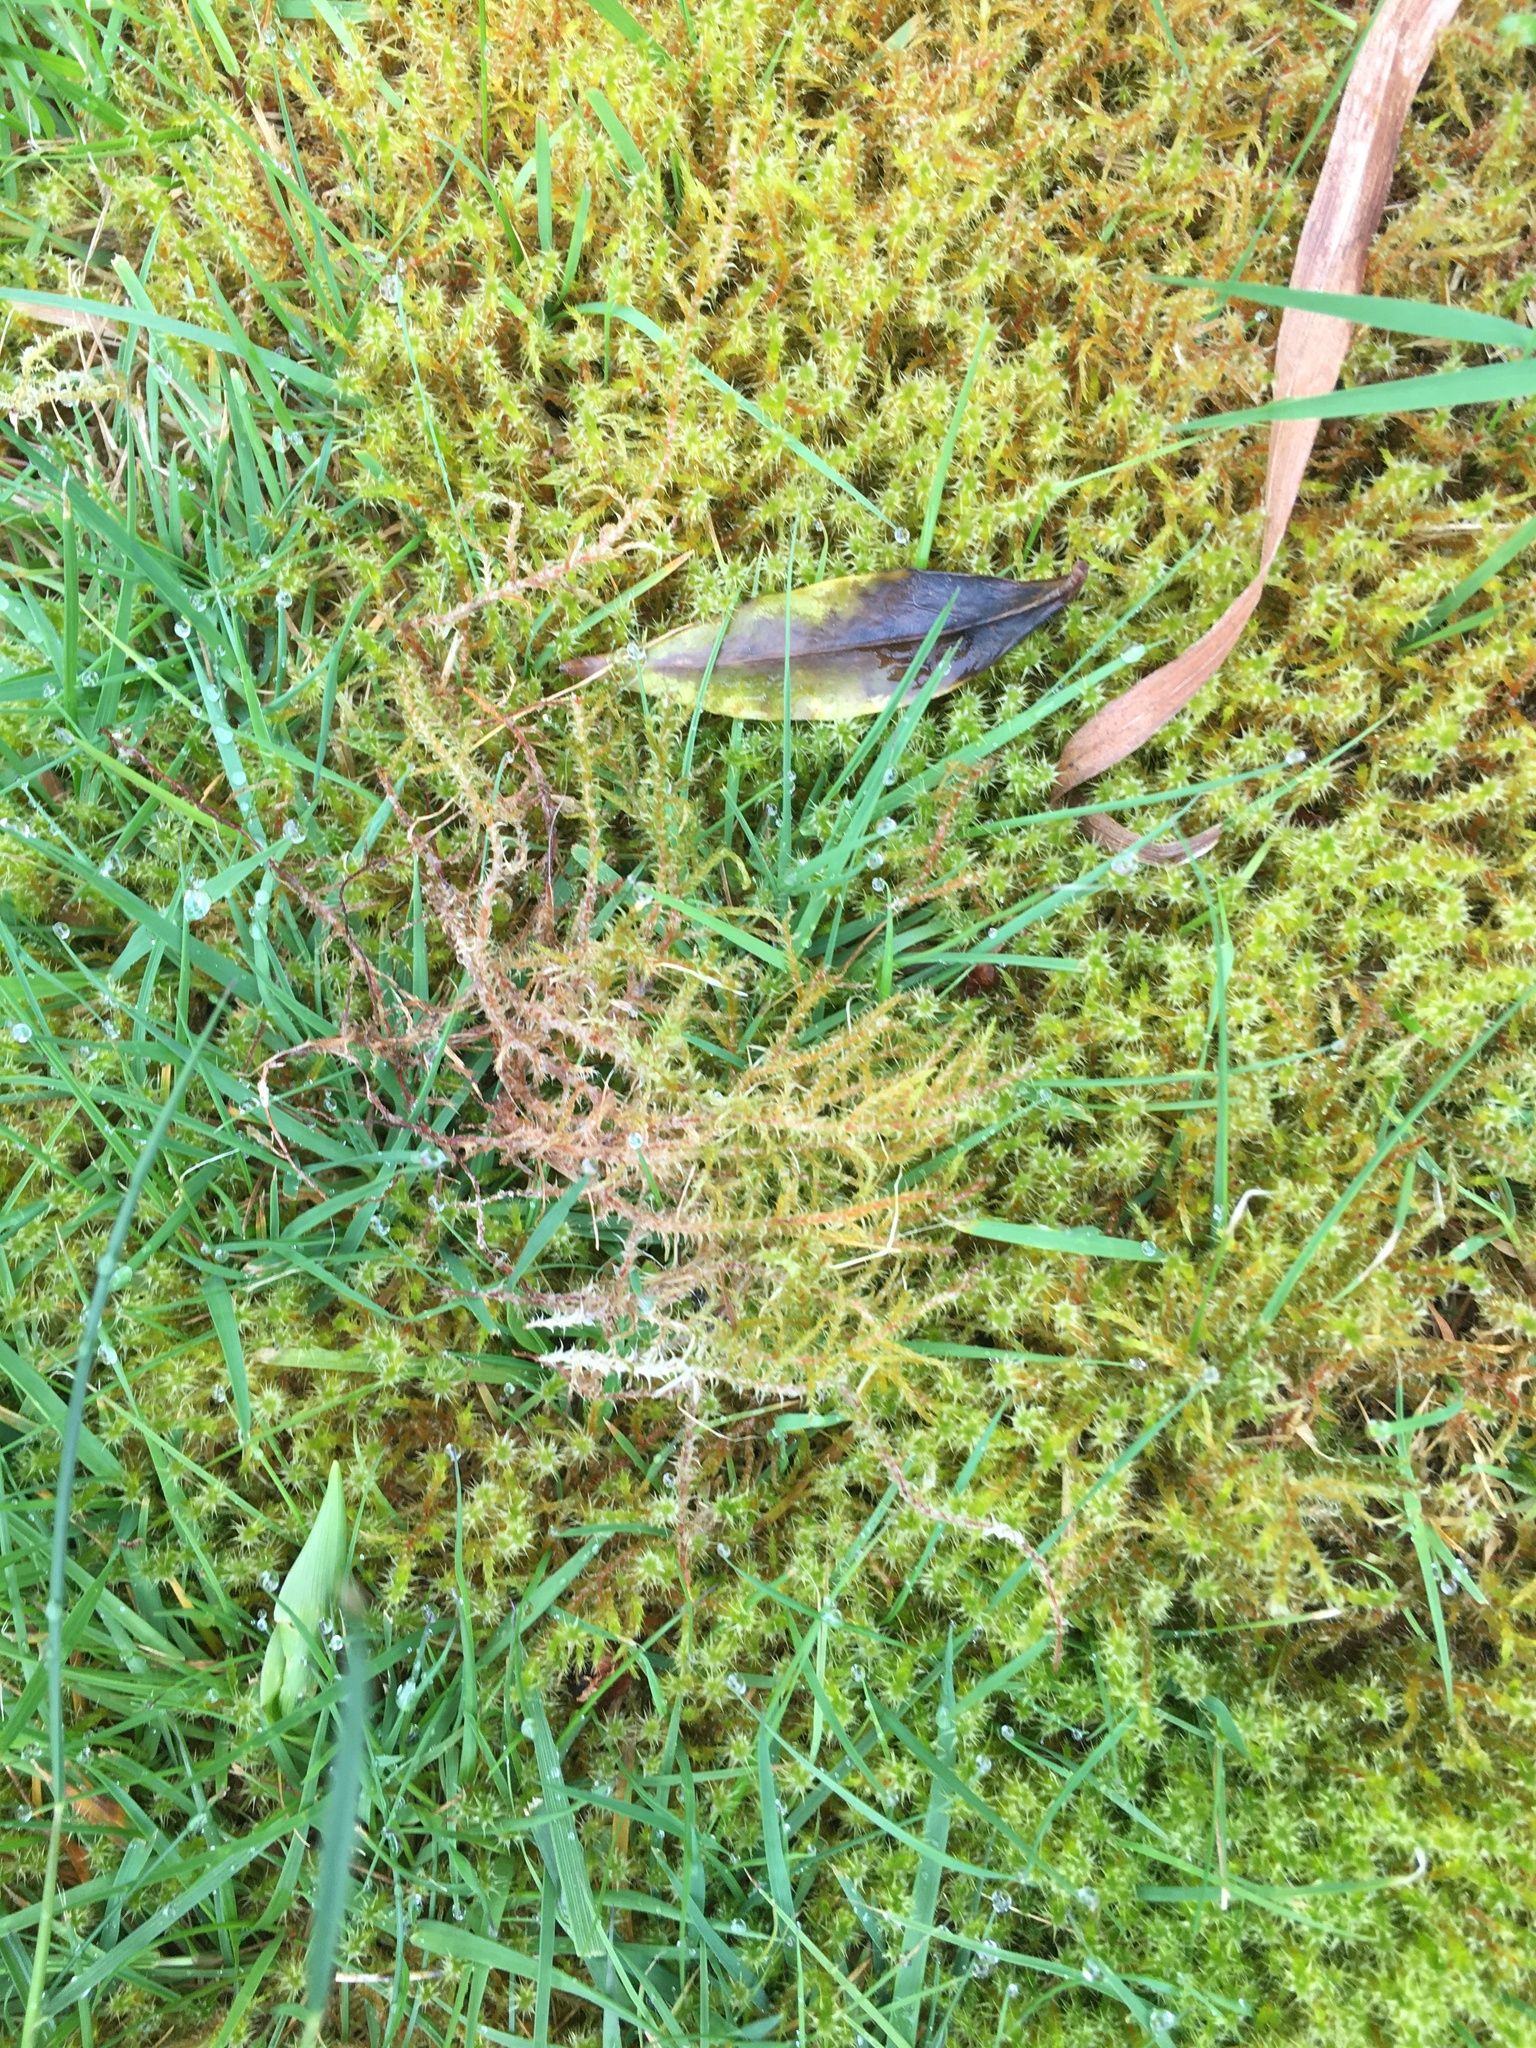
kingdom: Plantae
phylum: Bryophyta
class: Bryopsida
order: Hypnales
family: Hylocomiaceae
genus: Rhytidiadelphus
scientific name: Rhytidiadelphus squarrosus
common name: Springy turf-moss
